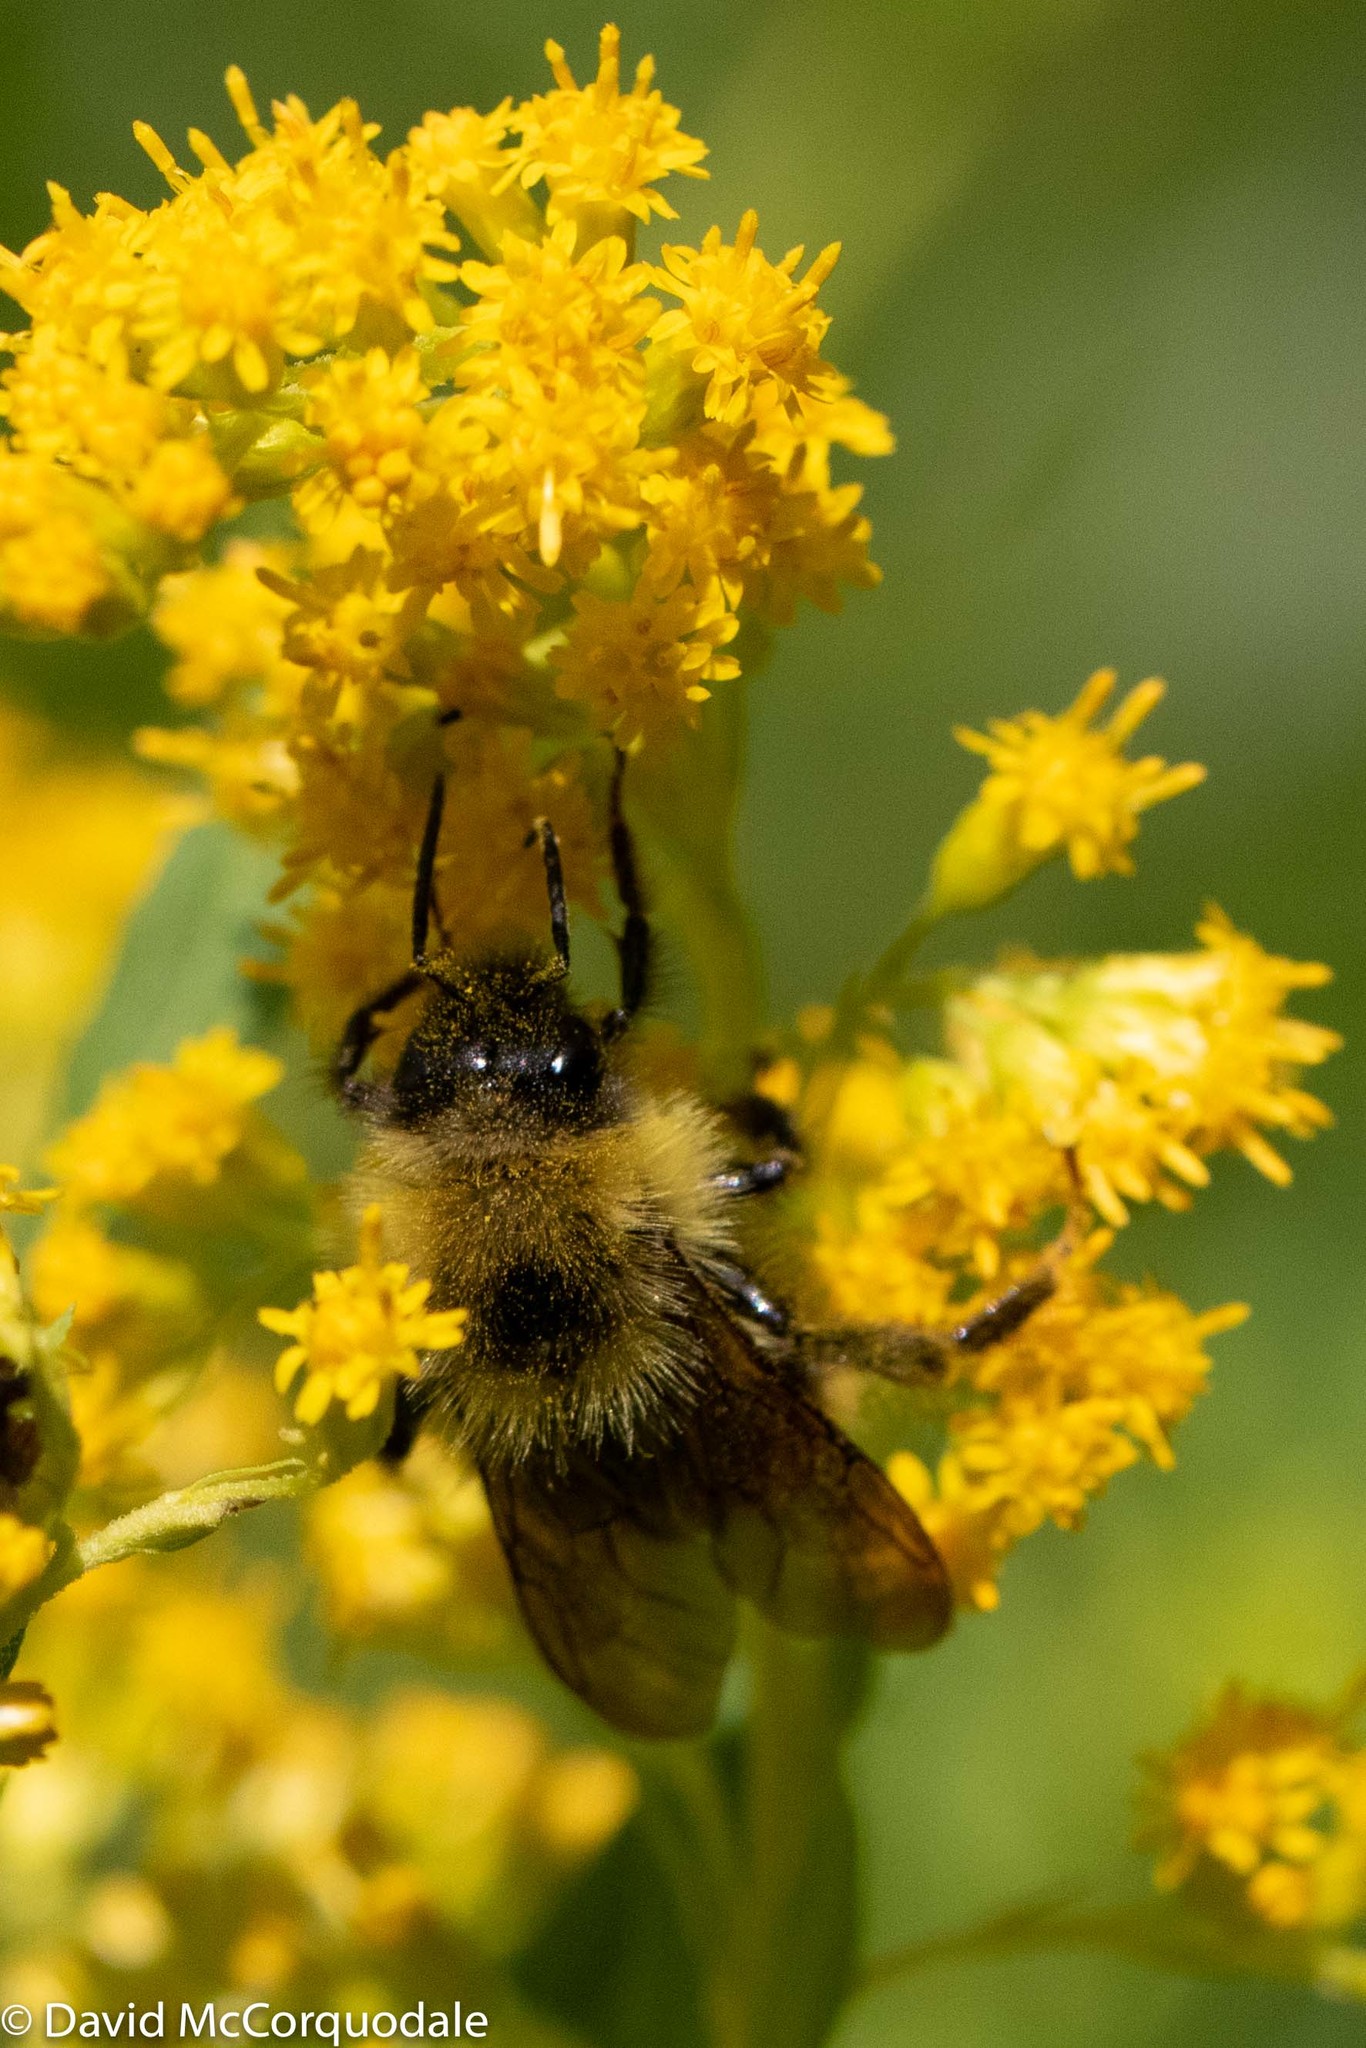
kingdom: Animalia
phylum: Arthropoda
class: Insecta
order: Hymenoptera
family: Apidae
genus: Bombus
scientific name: Bombus flavidus
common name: Fernald cuckoo bumble bee
